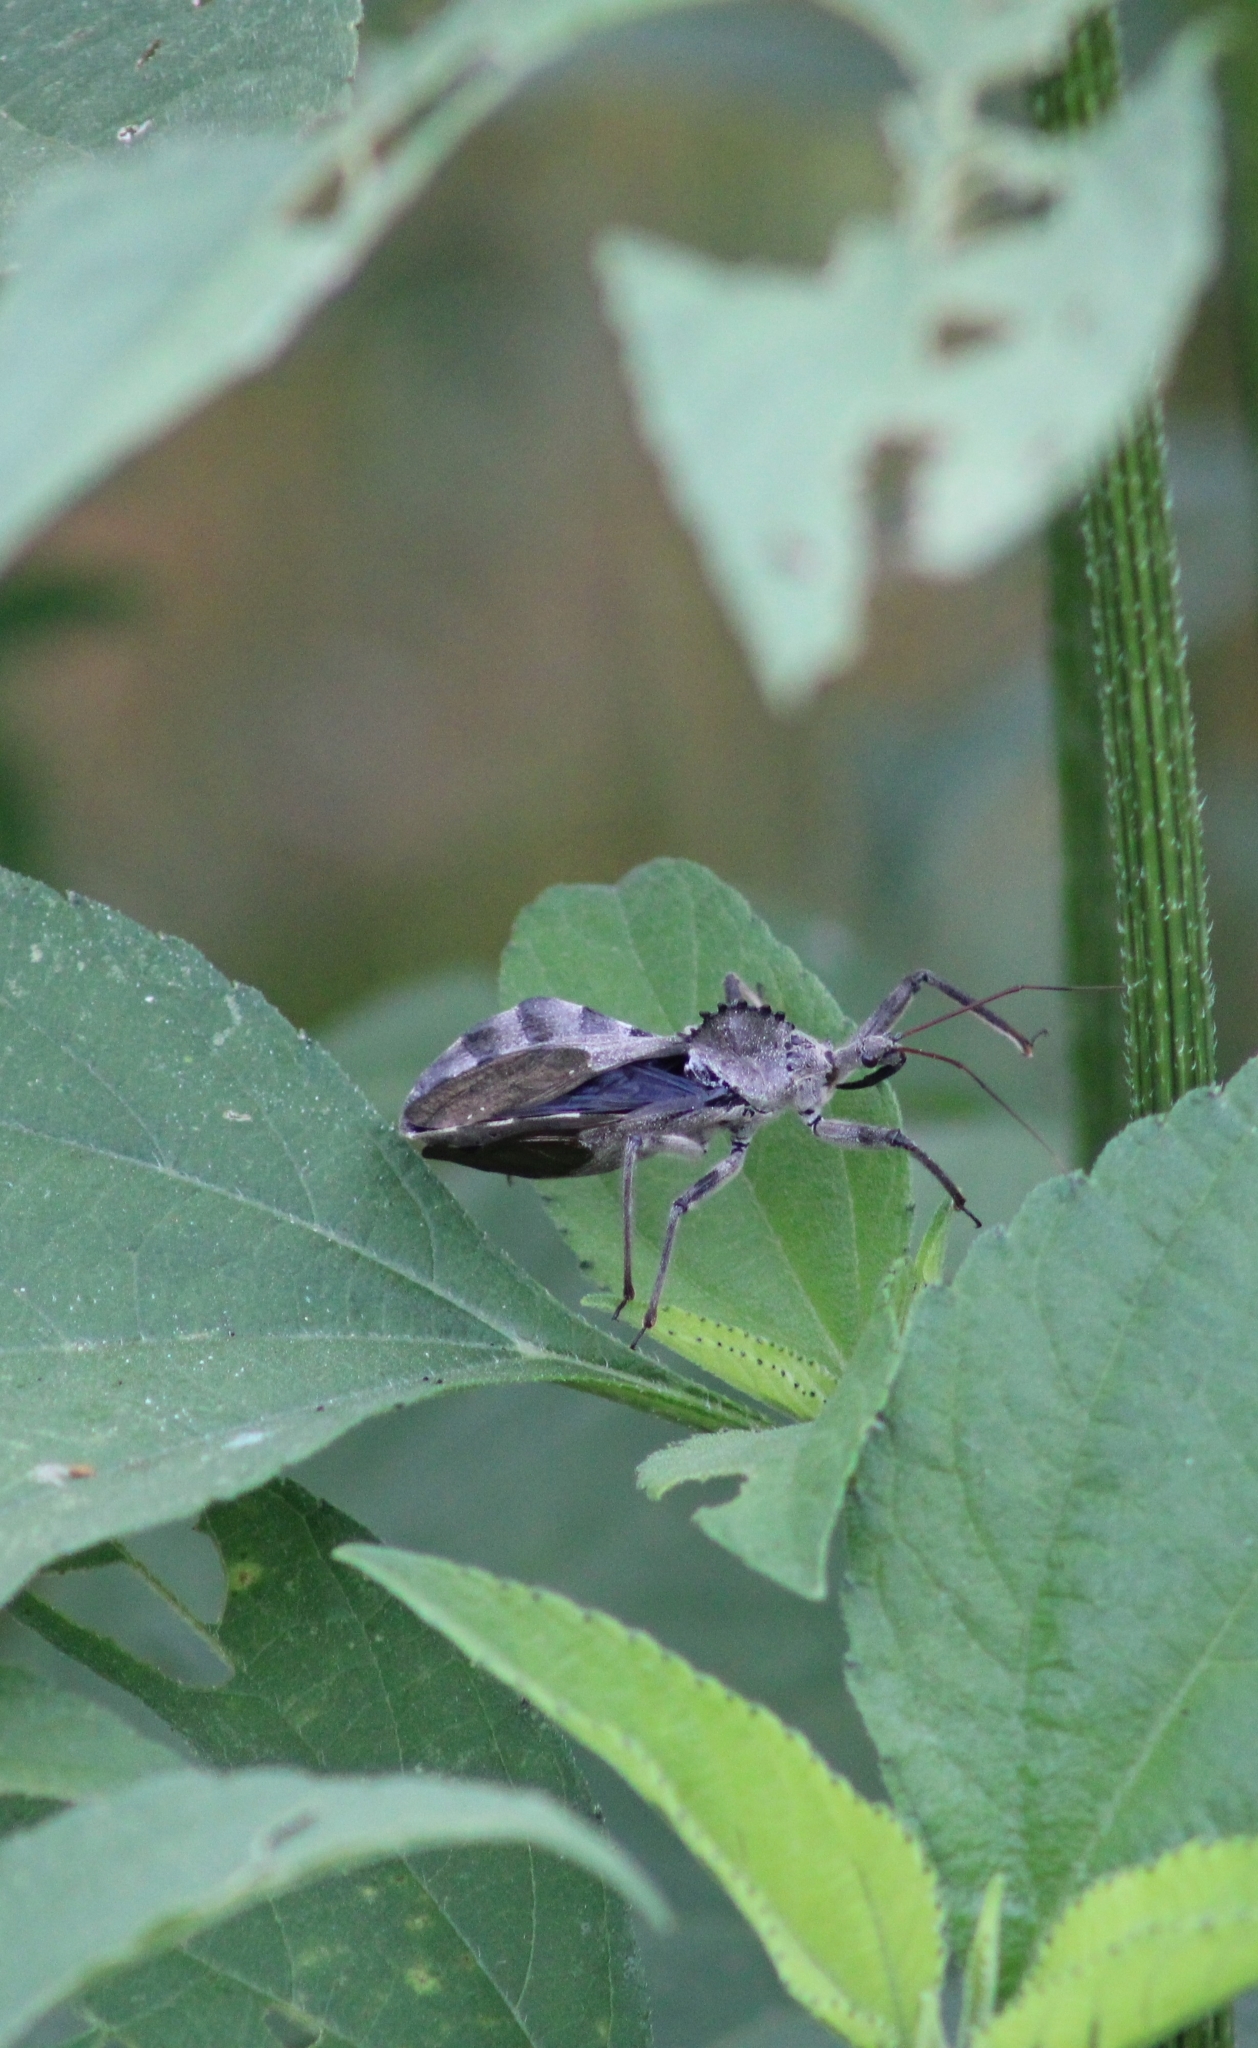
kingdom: Animalia
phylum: Arthropoda
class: Insecta
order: Hemiptera
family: Reduviidae
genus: Arilus
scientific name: Arilus cristatus
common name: North american wheel bug
